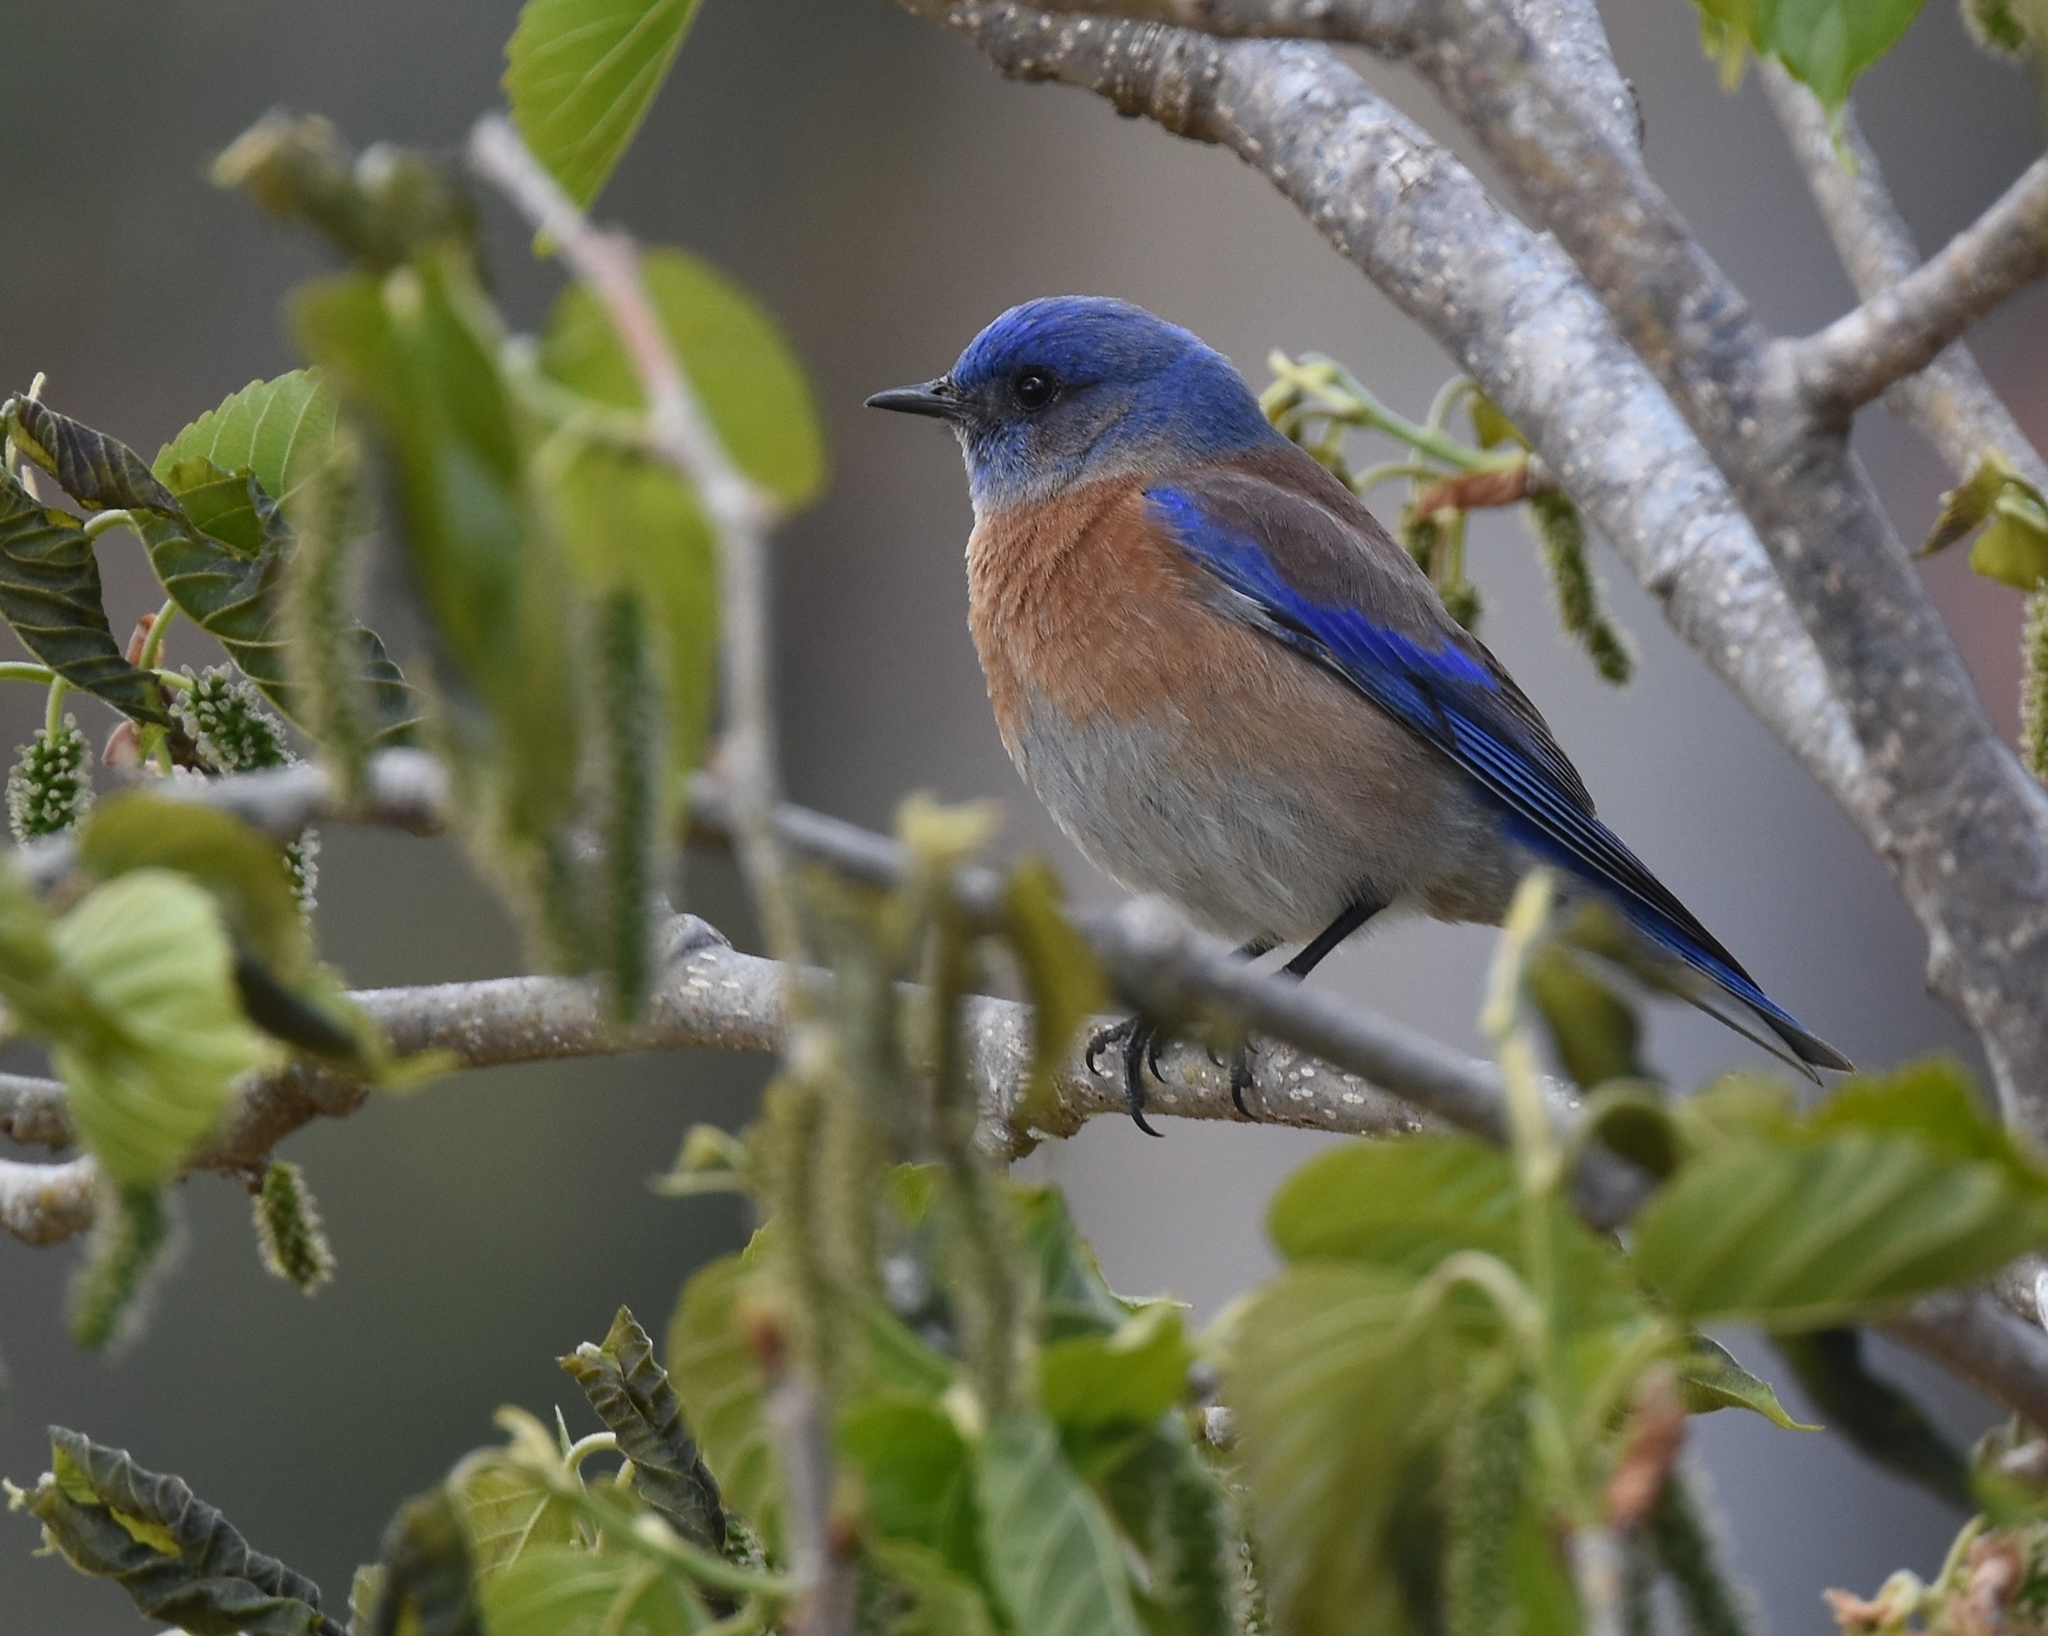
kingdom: Animalia
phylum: Chordata
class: Aves
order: Passeriformes
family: Turdidae
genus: Sialia
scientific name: Sialia mexicana
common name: Western bluebird
